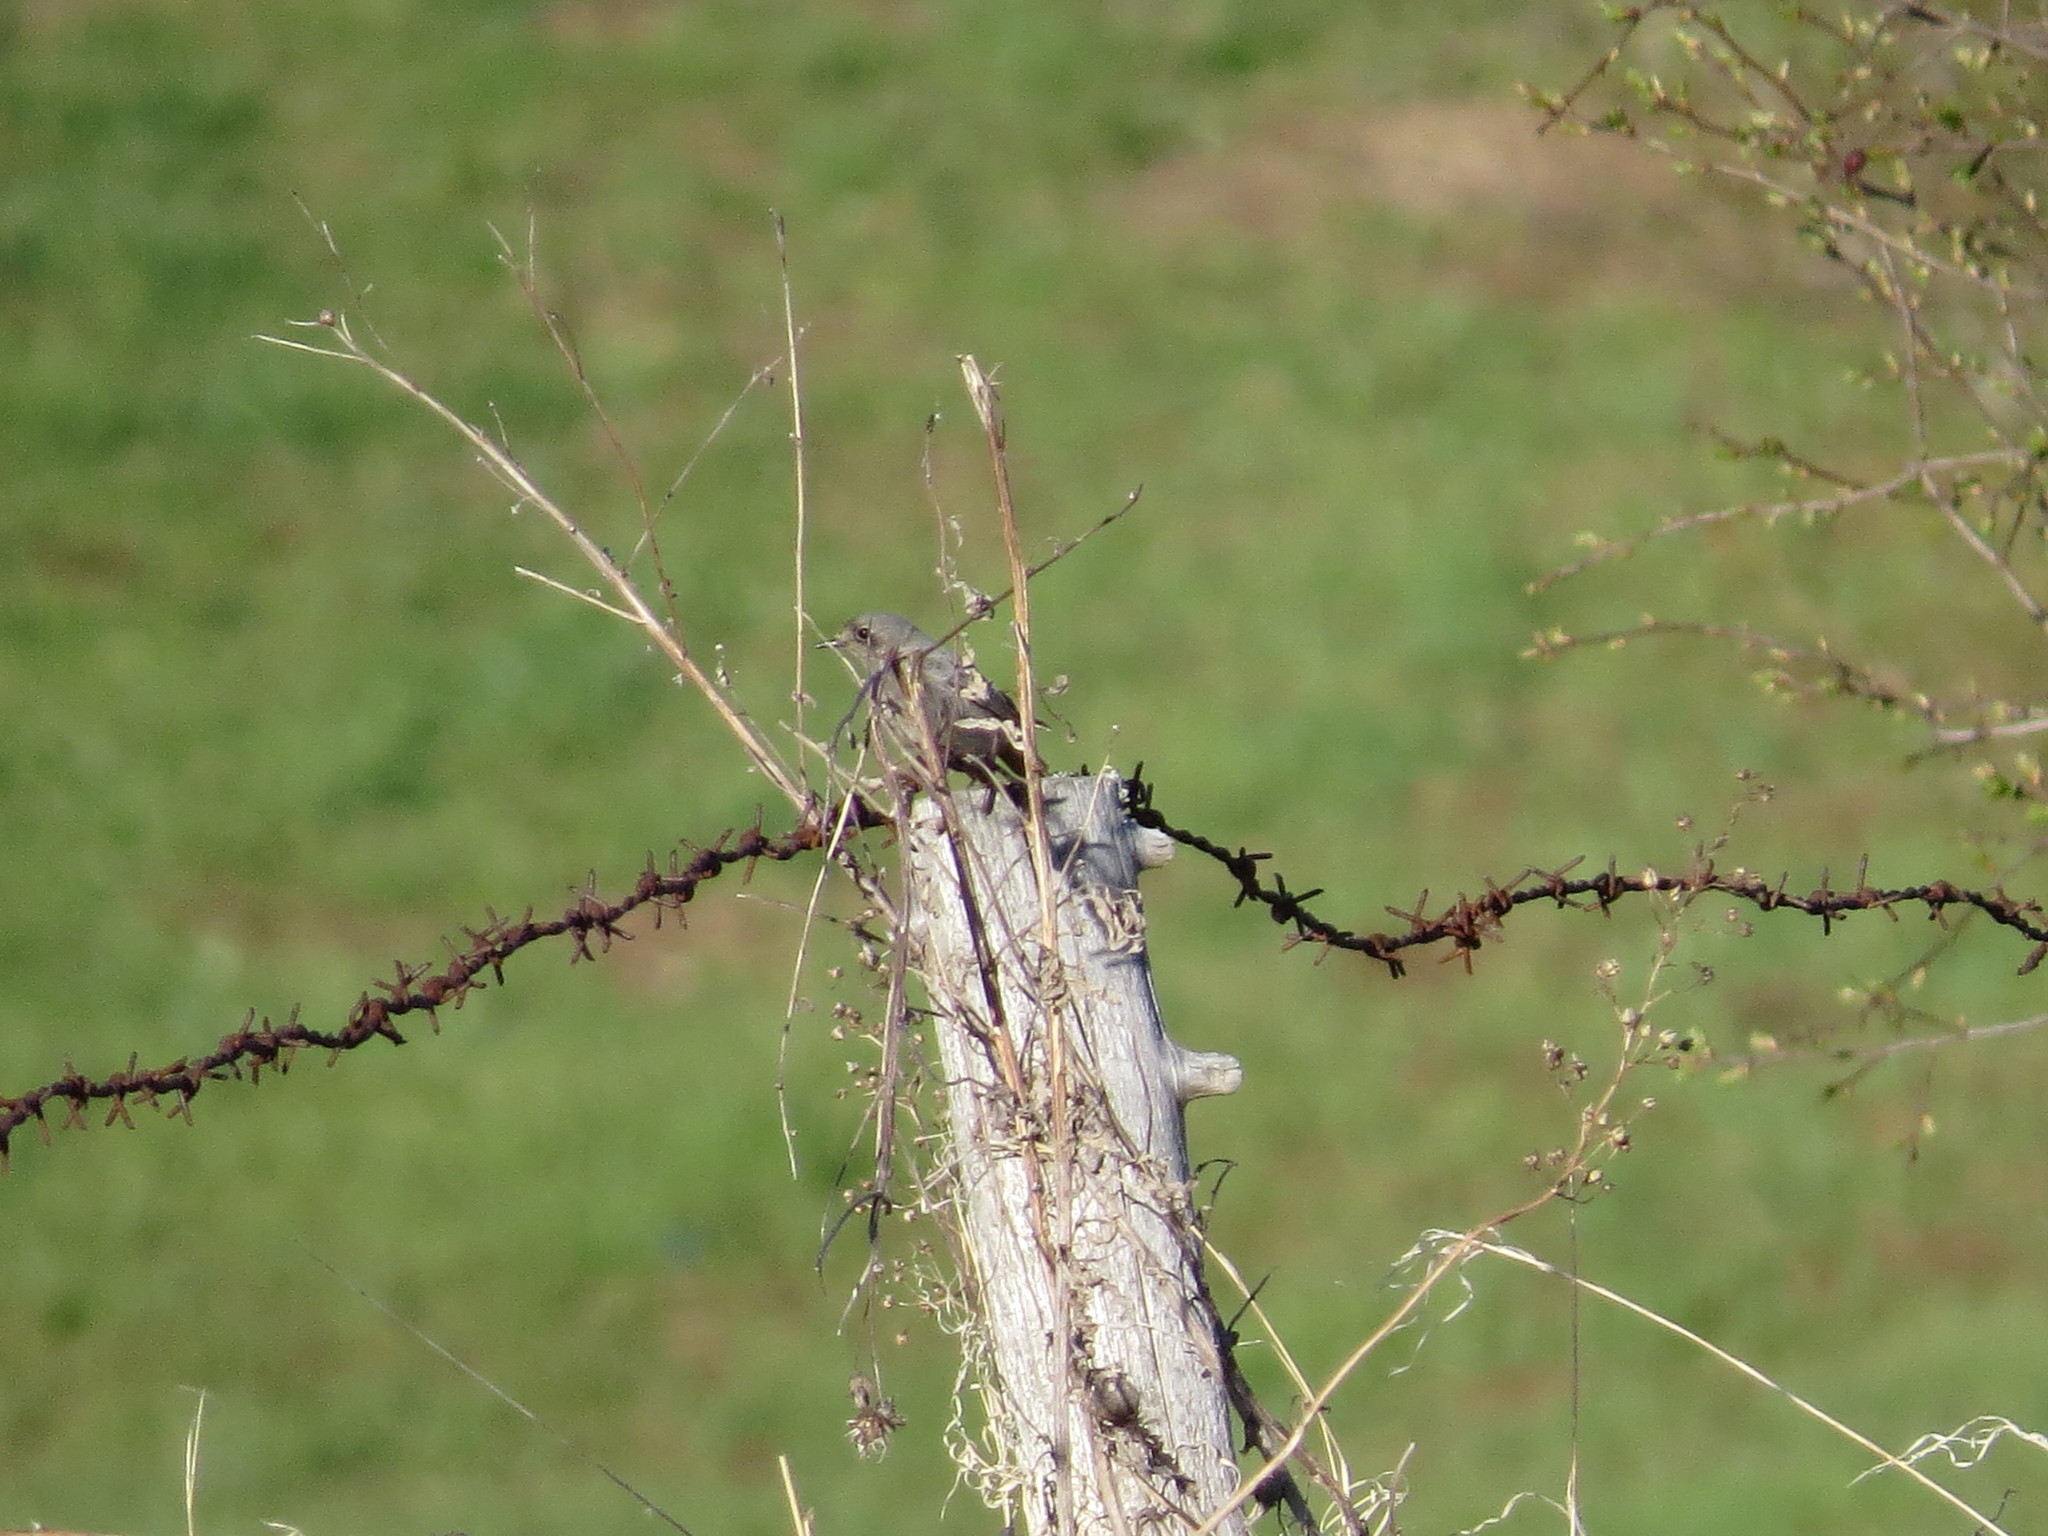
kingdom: Animalia
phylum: Chordata
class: Aves
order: Passeriformes
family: Muscicapidae
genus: Phoenicurus
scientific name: Phoenicurus ochruros
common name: Black redstart
